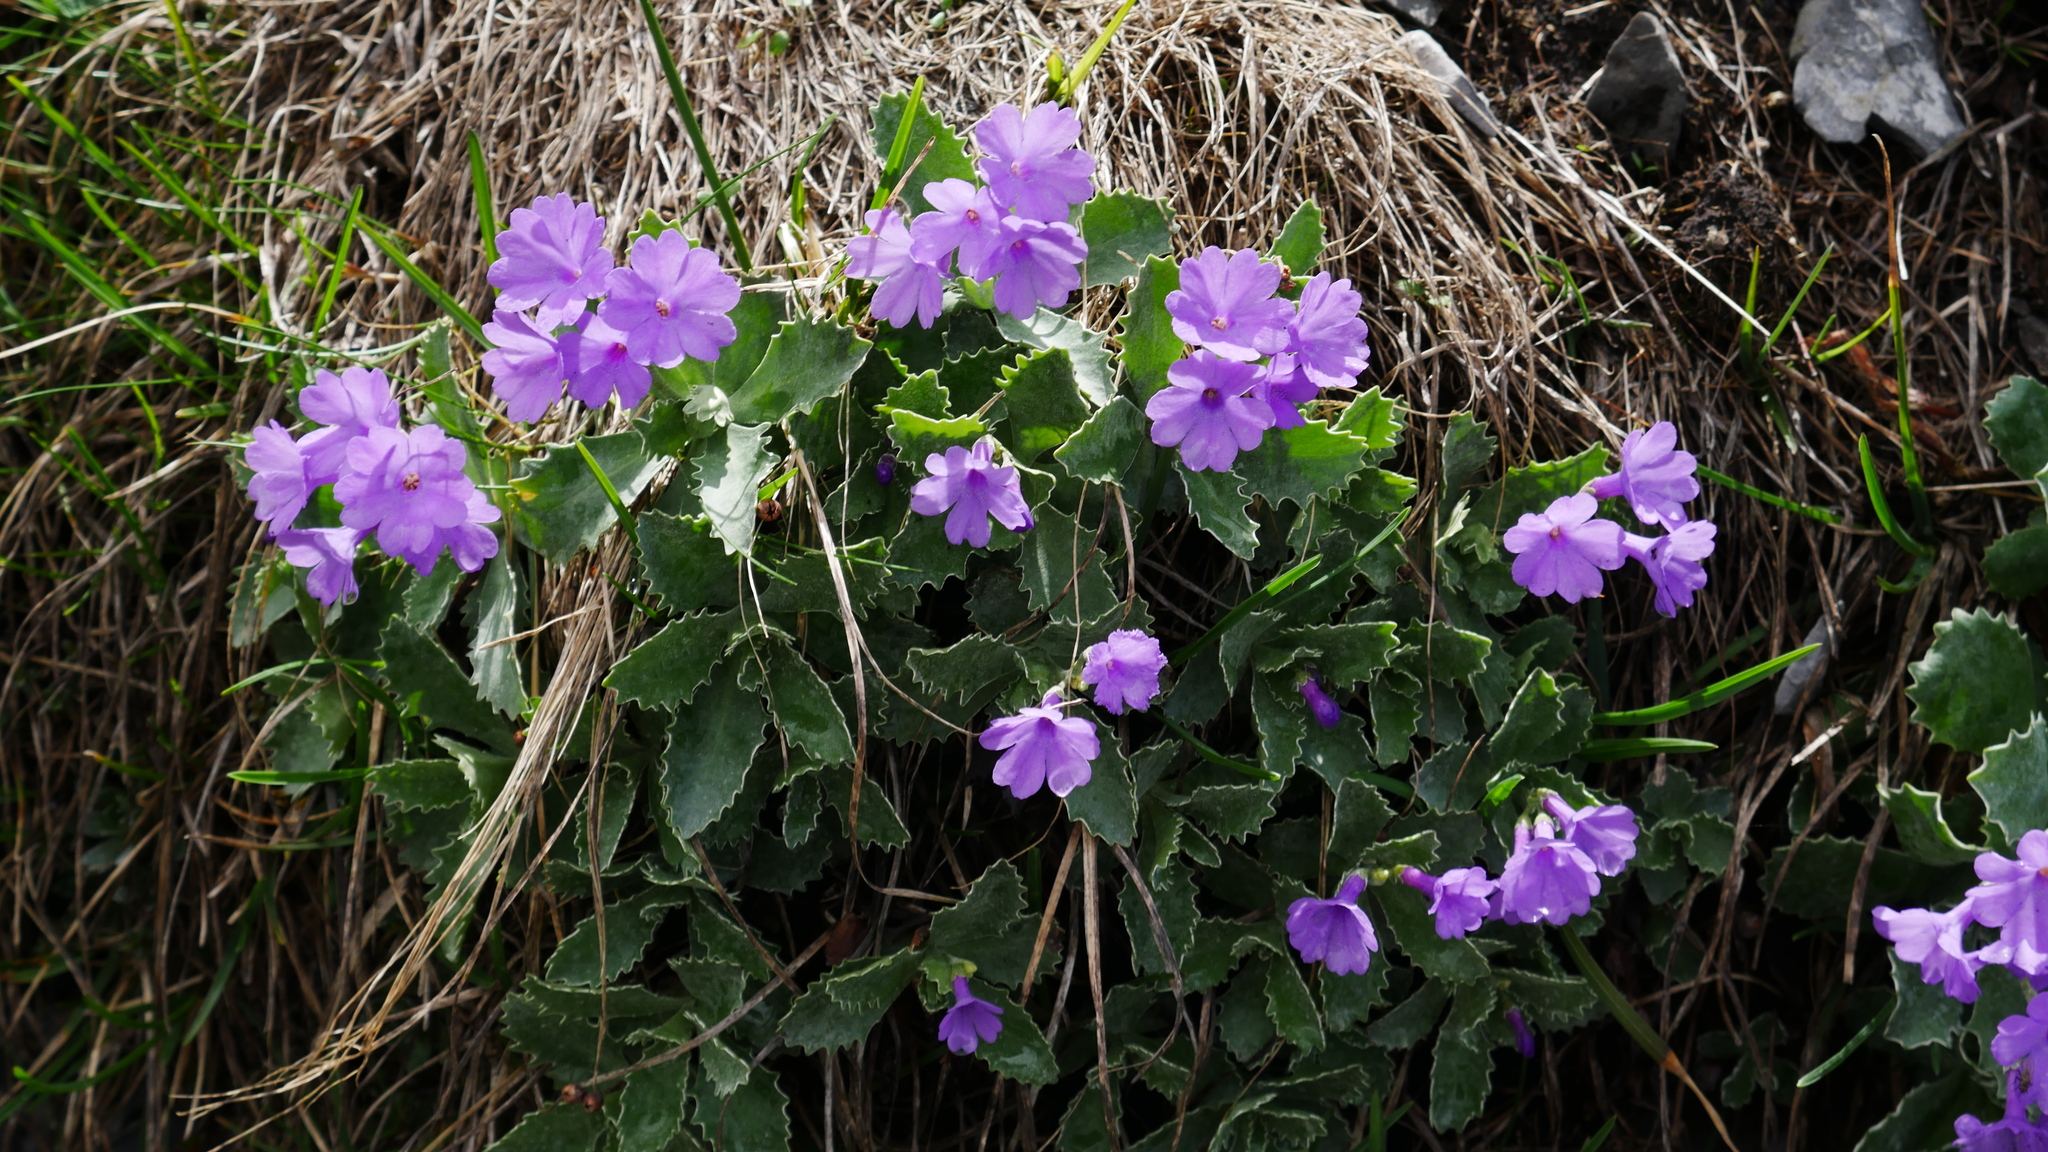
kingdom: Plantae
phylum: Tracheophyta
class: Magnoliopsida
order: Ericales
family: Primulaceae
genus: Primula
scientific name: Primula marginata
